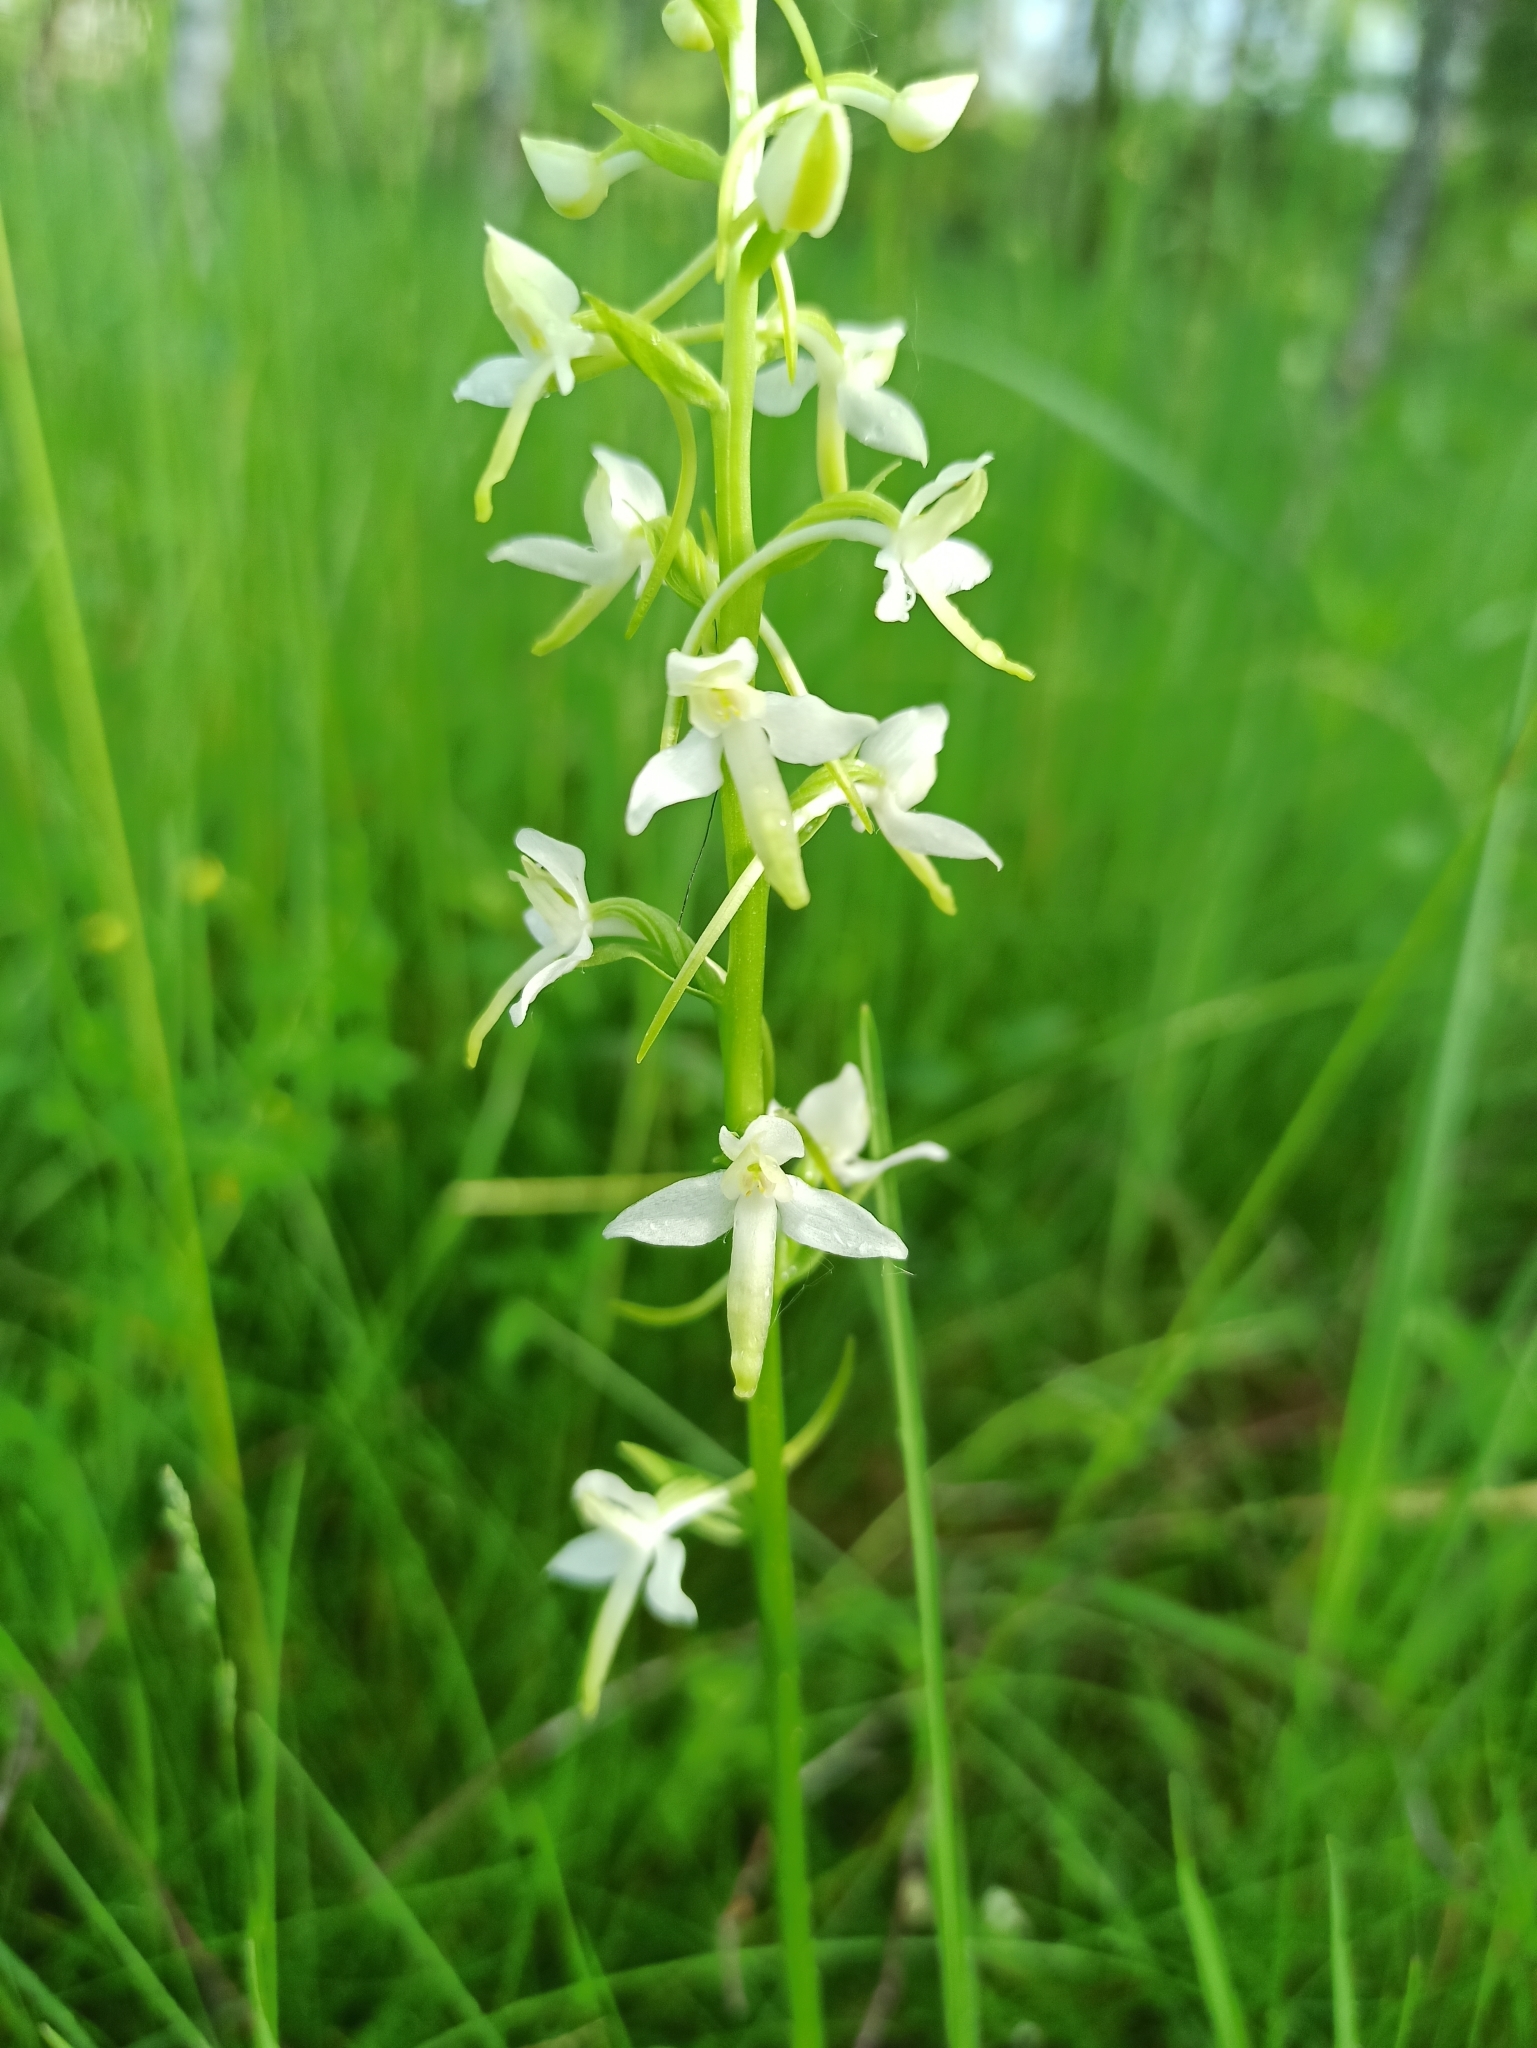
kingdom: Plantae
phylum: Tracheophyta
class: Liliopsida
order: Asparagales
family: Orchidaceae
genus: Platanthera
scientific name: Platanthera bifolia
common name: Lesser butterfly-orchid
